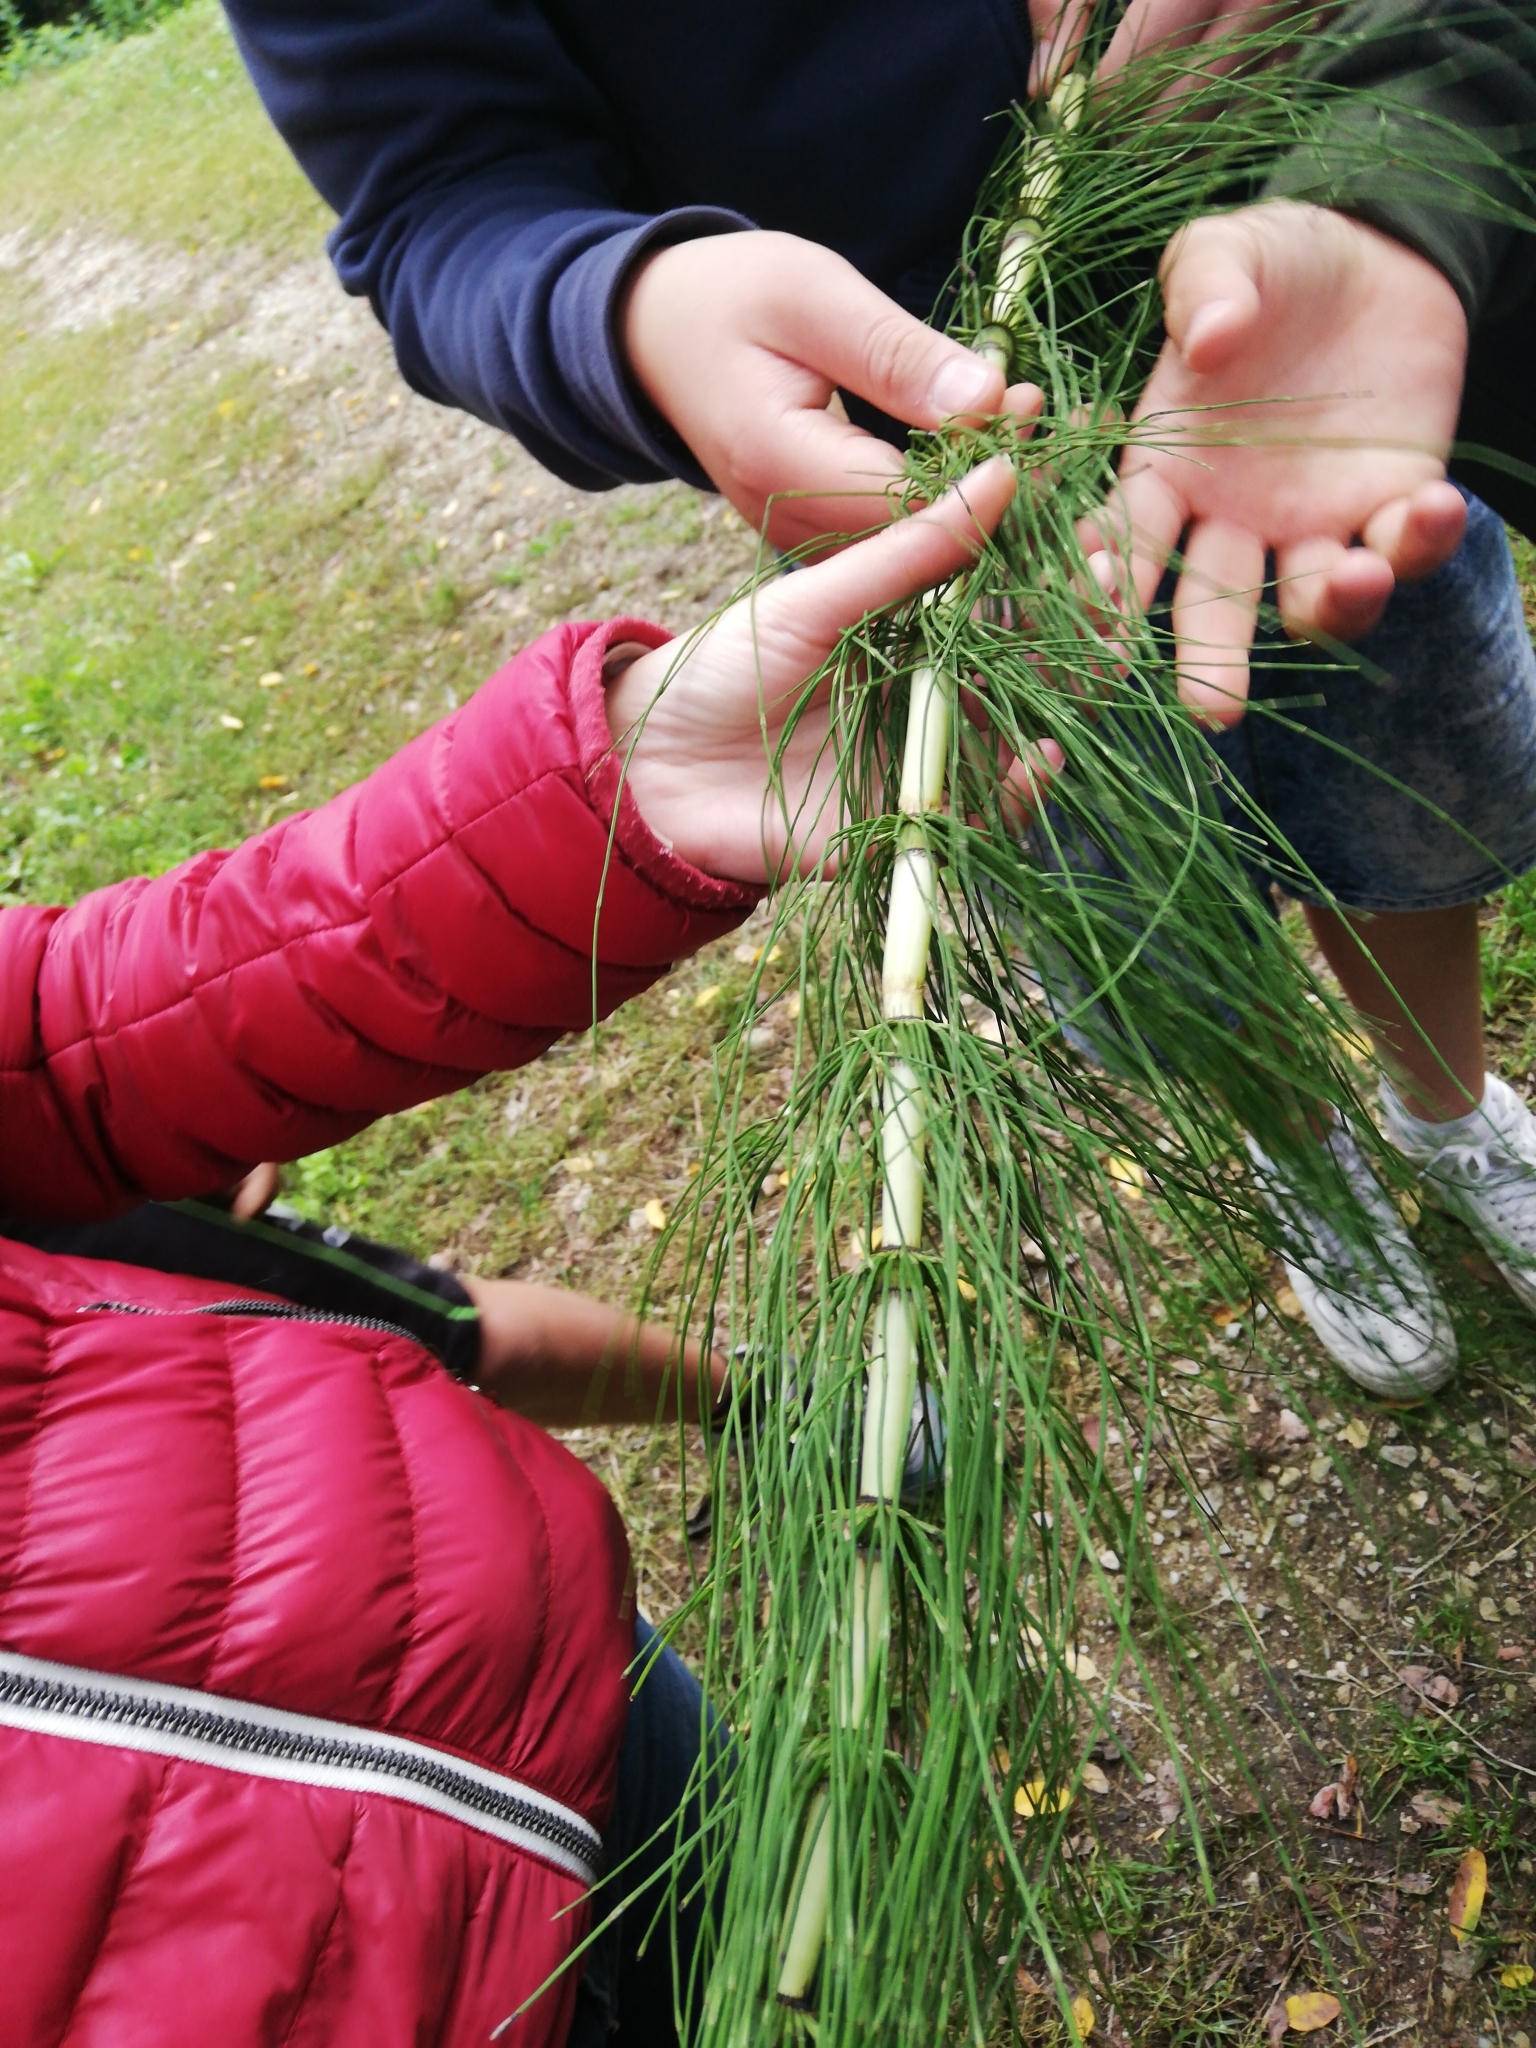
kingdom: Plantae
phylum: Tracheophyta
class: Polypodiopsida
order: Equisetales
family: Equisetaceae
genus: Equisetum
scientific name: Equisetum telmateia
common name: Great horsetail
